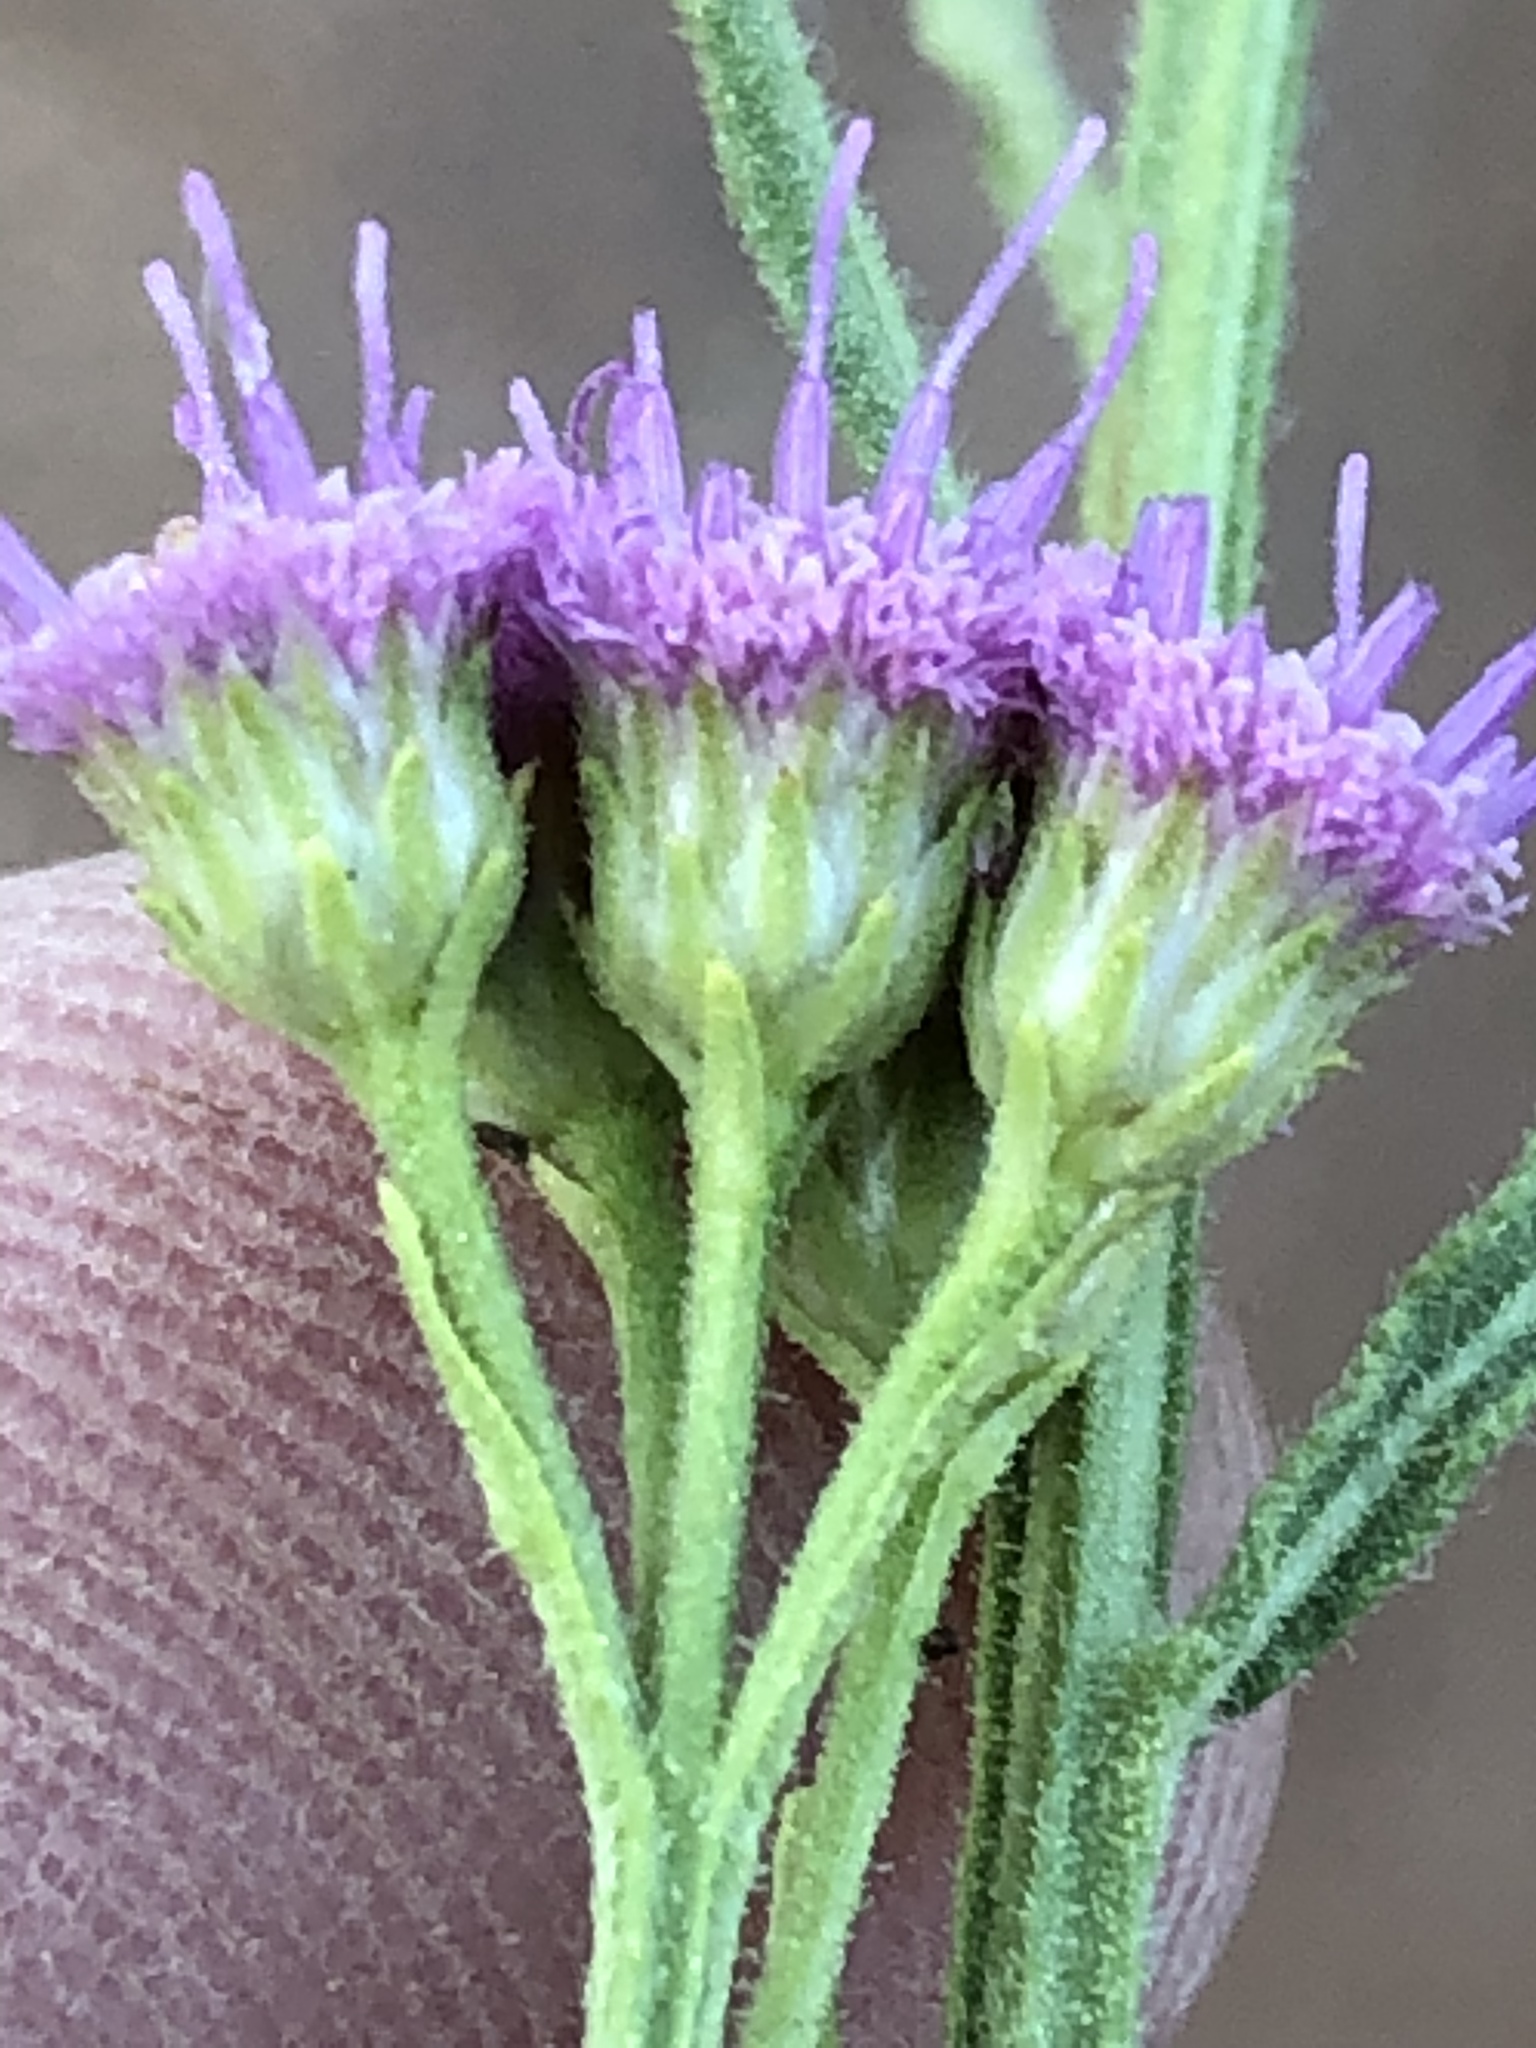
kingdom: Plantae
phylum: Tracheophyta
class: Magnoliopsida
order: Asterales
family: Asteraceae
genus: Litogyne
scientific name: Litogyne gariepina
